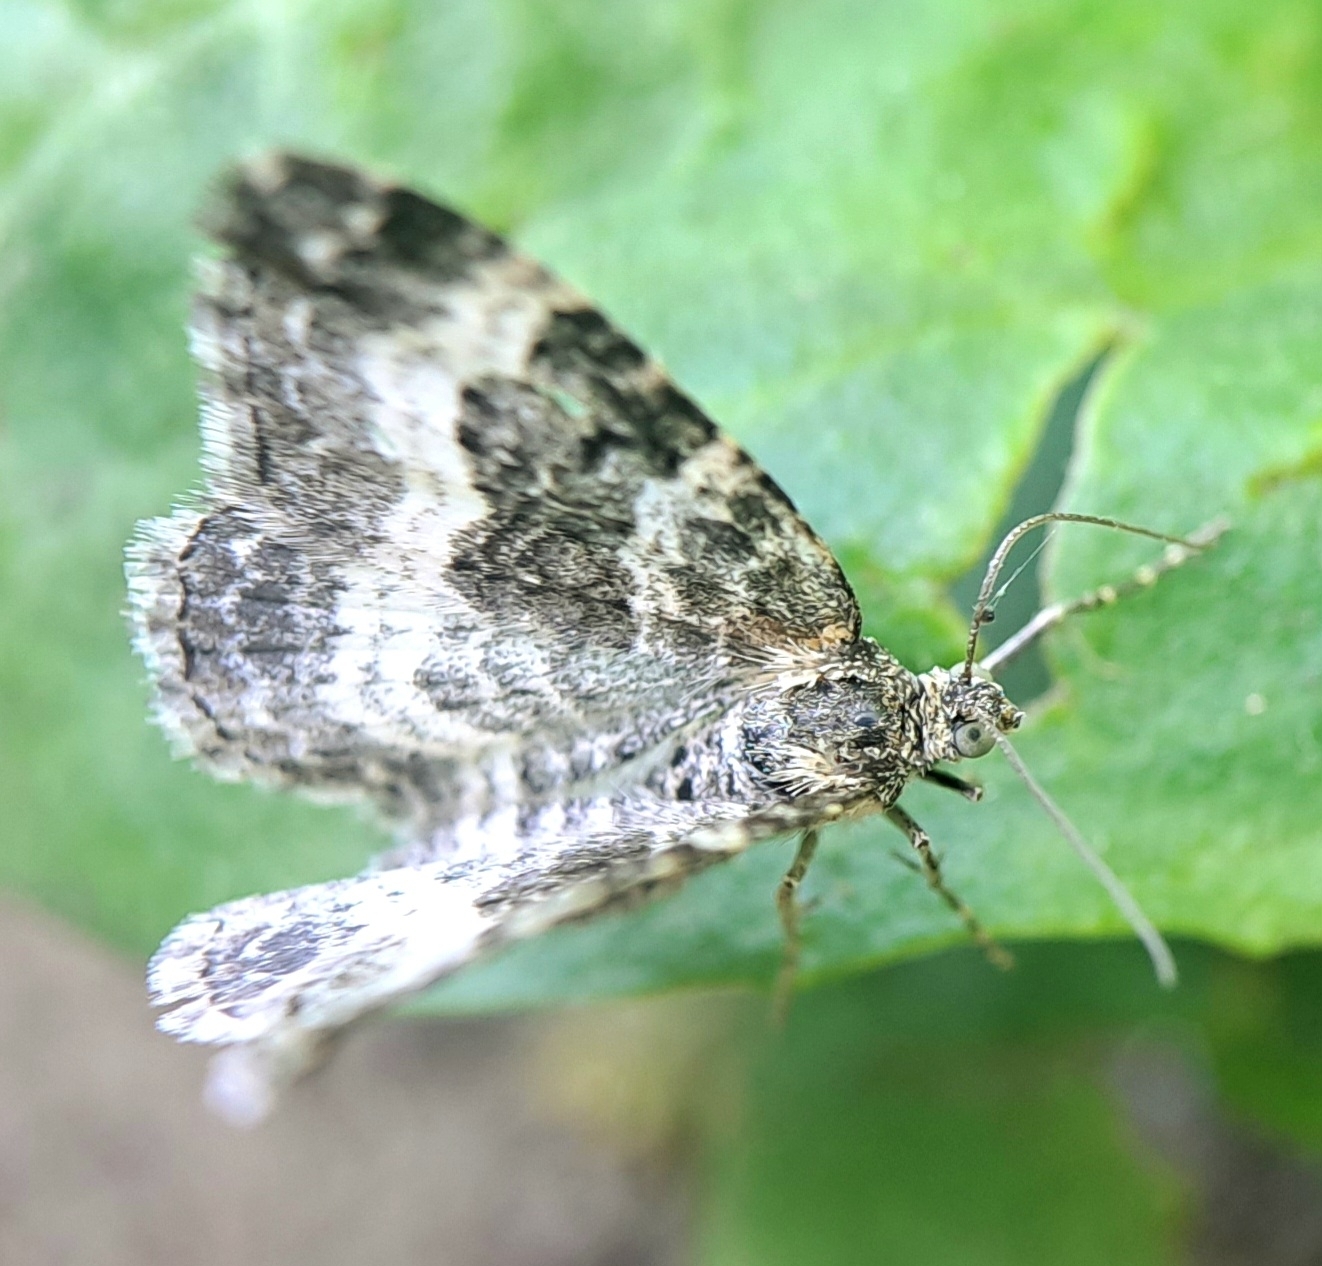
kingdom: Animalia
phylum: Arthropoda
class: Insecta
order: Lepidoptera
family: Geometridae
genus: Epirrhoe
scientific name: Epirrhoe alternata
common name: Common carpet
